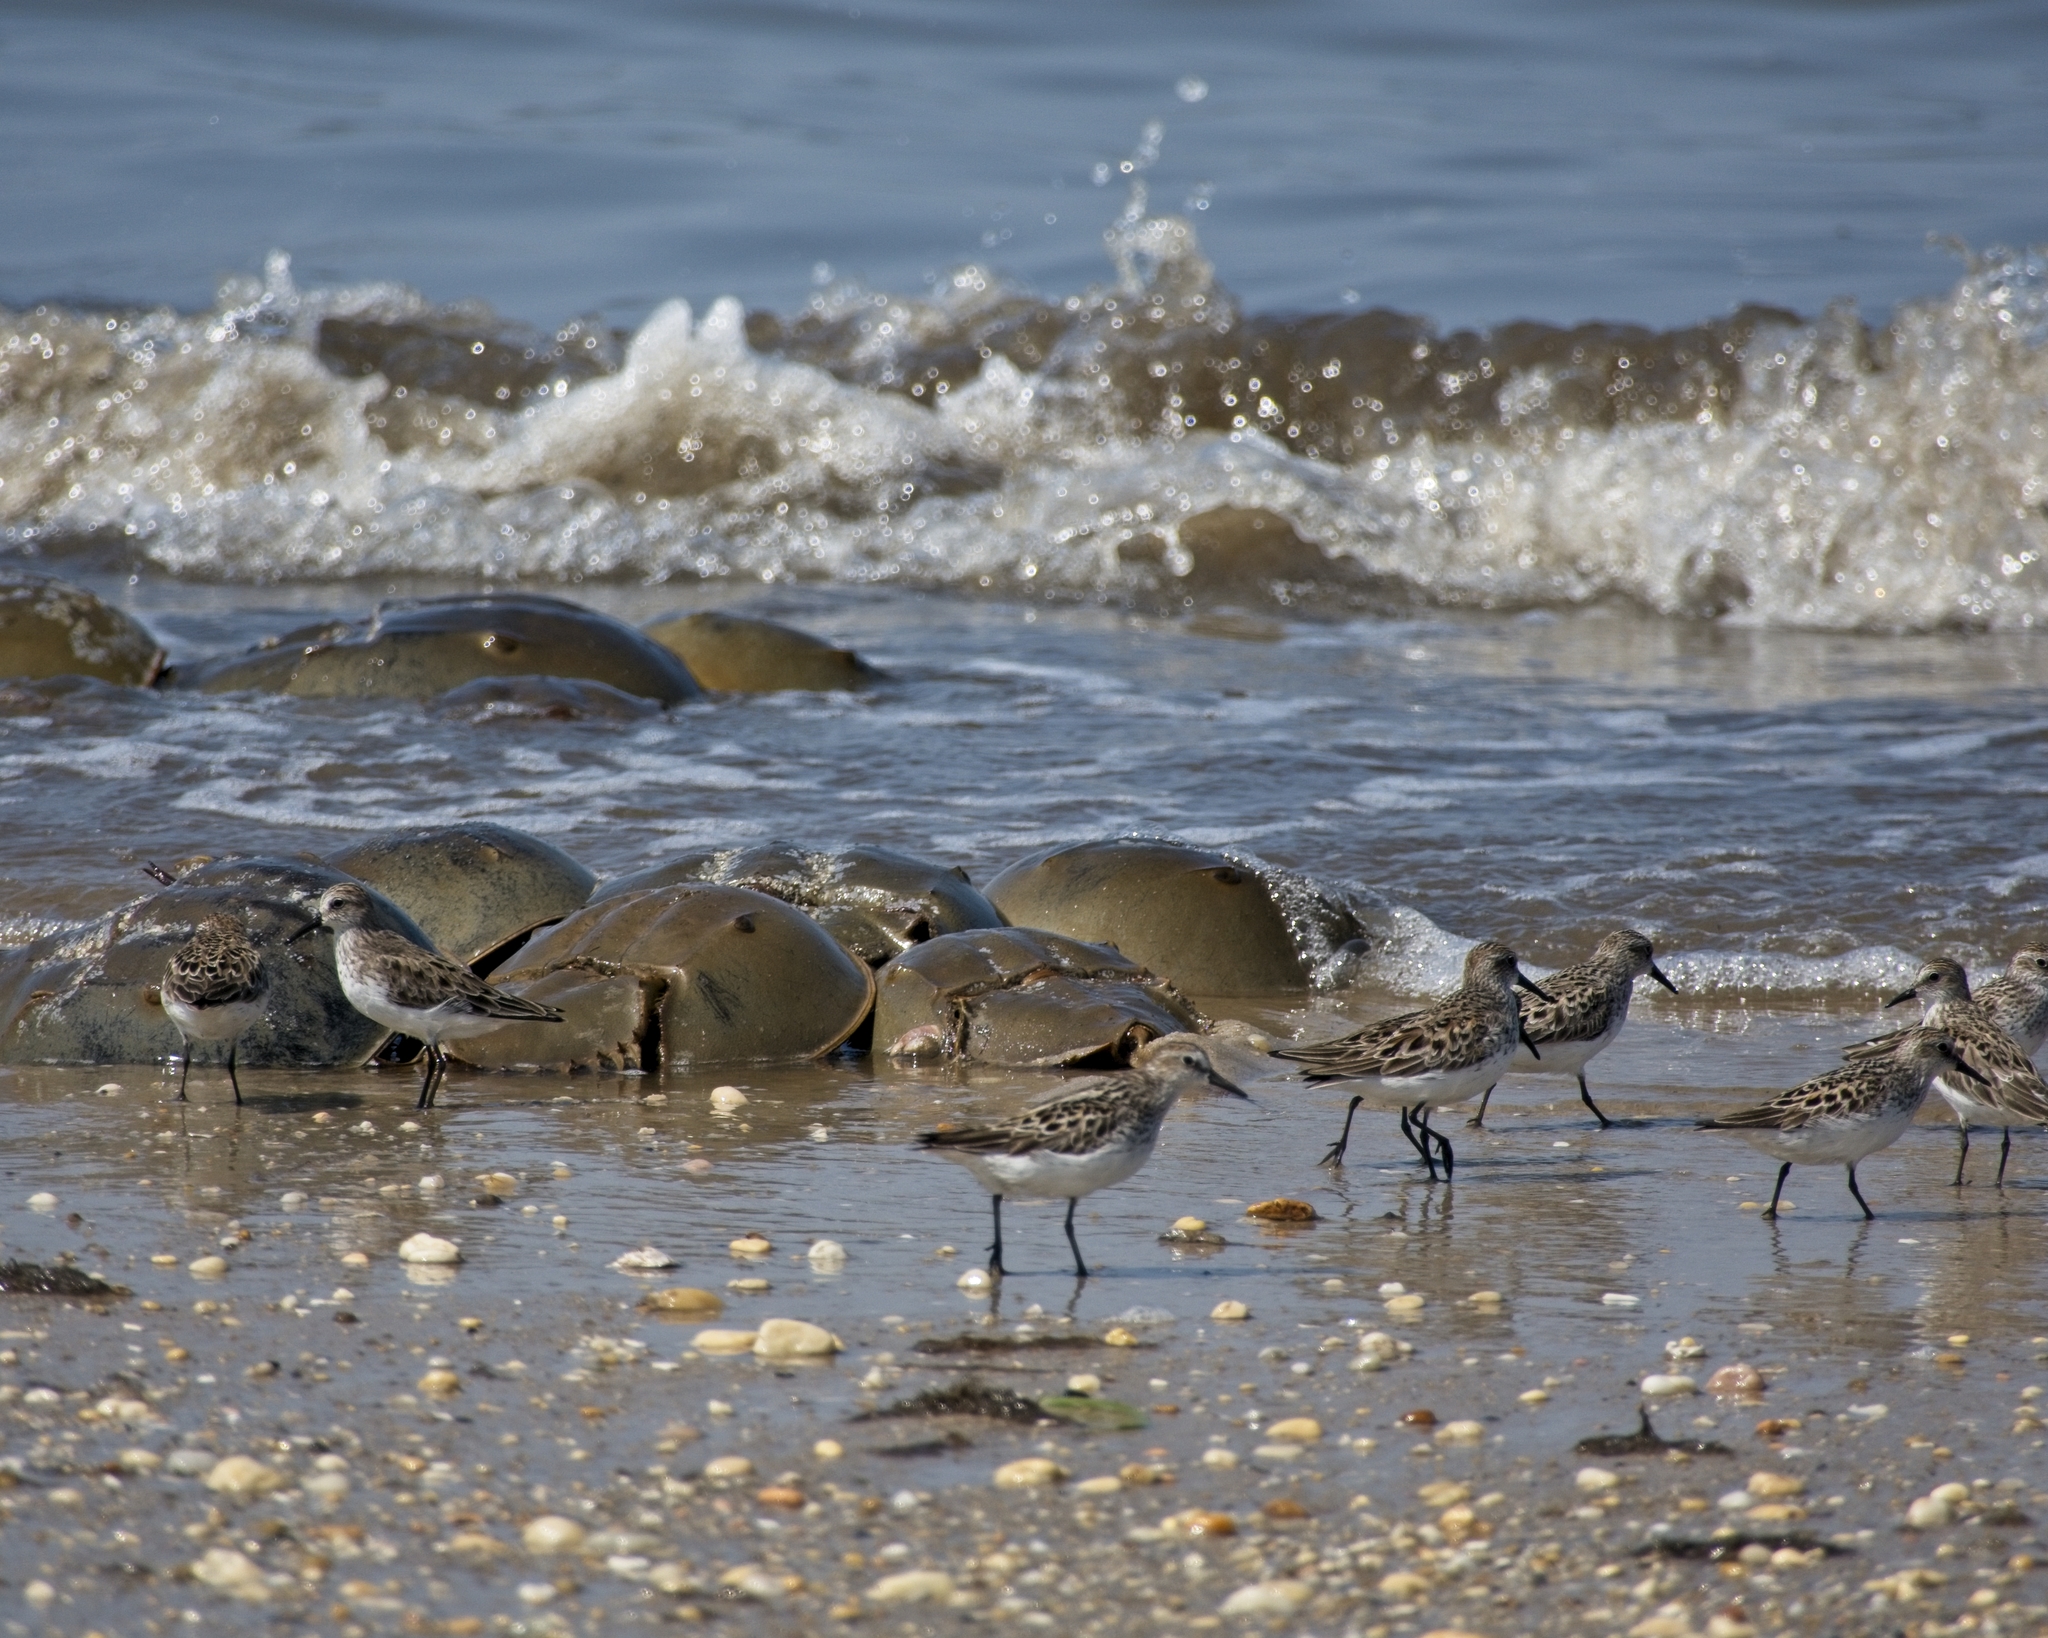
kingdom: Animalia
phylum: Chordata
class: Aves
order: Charadriiformes
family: Scolopacidae
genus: Calidris
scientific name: Calidris alba
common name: Sanderling
